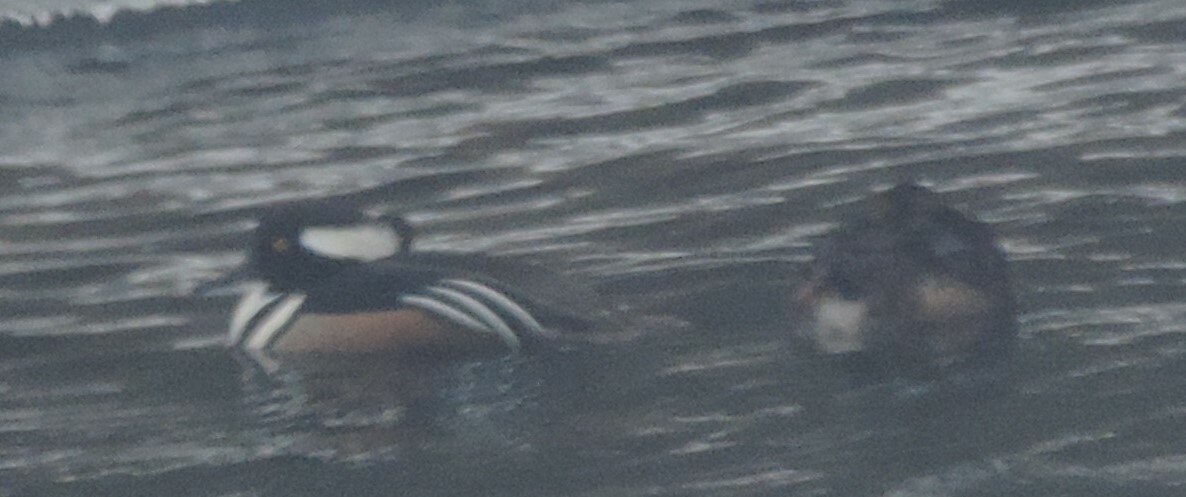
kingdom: Animalia
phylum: Chordata
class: Aves
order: Anseriformes
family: Anatidae
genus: Lophodytes
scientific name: Lophodytes cucullatus
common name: Hooded merganser
